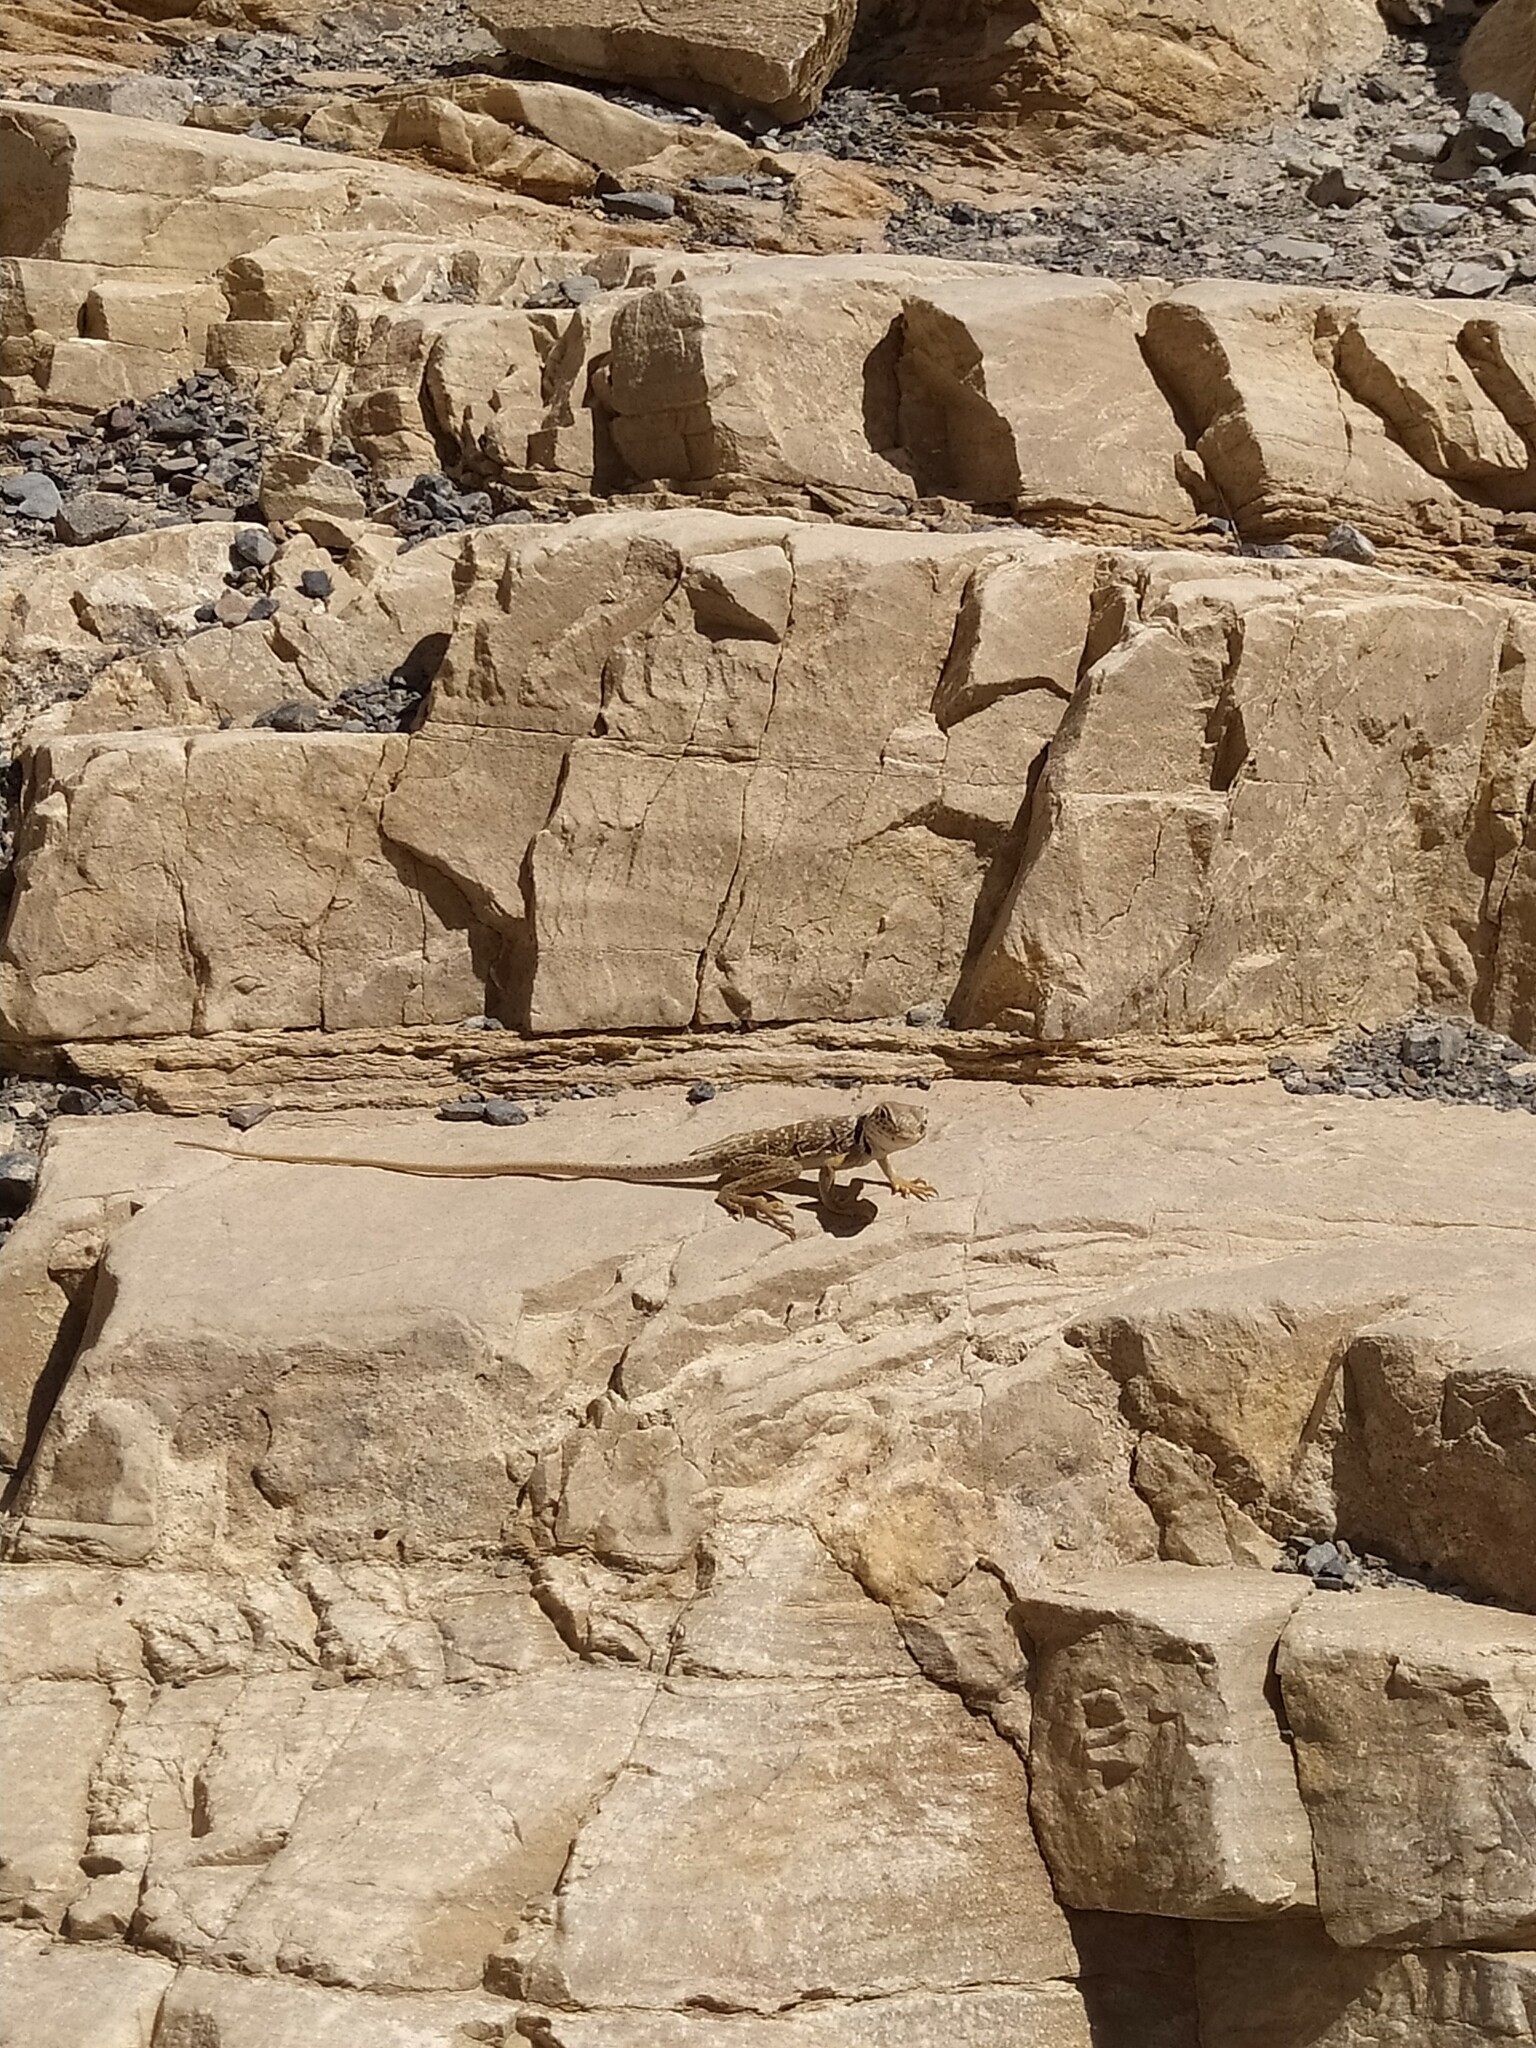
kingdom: Animalia
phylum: Chordata
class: Squamata
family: Crotaphytidae
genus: Crotaphytus
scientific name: Crotaphytus bicinctores
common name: Mojave black-collared lizard
